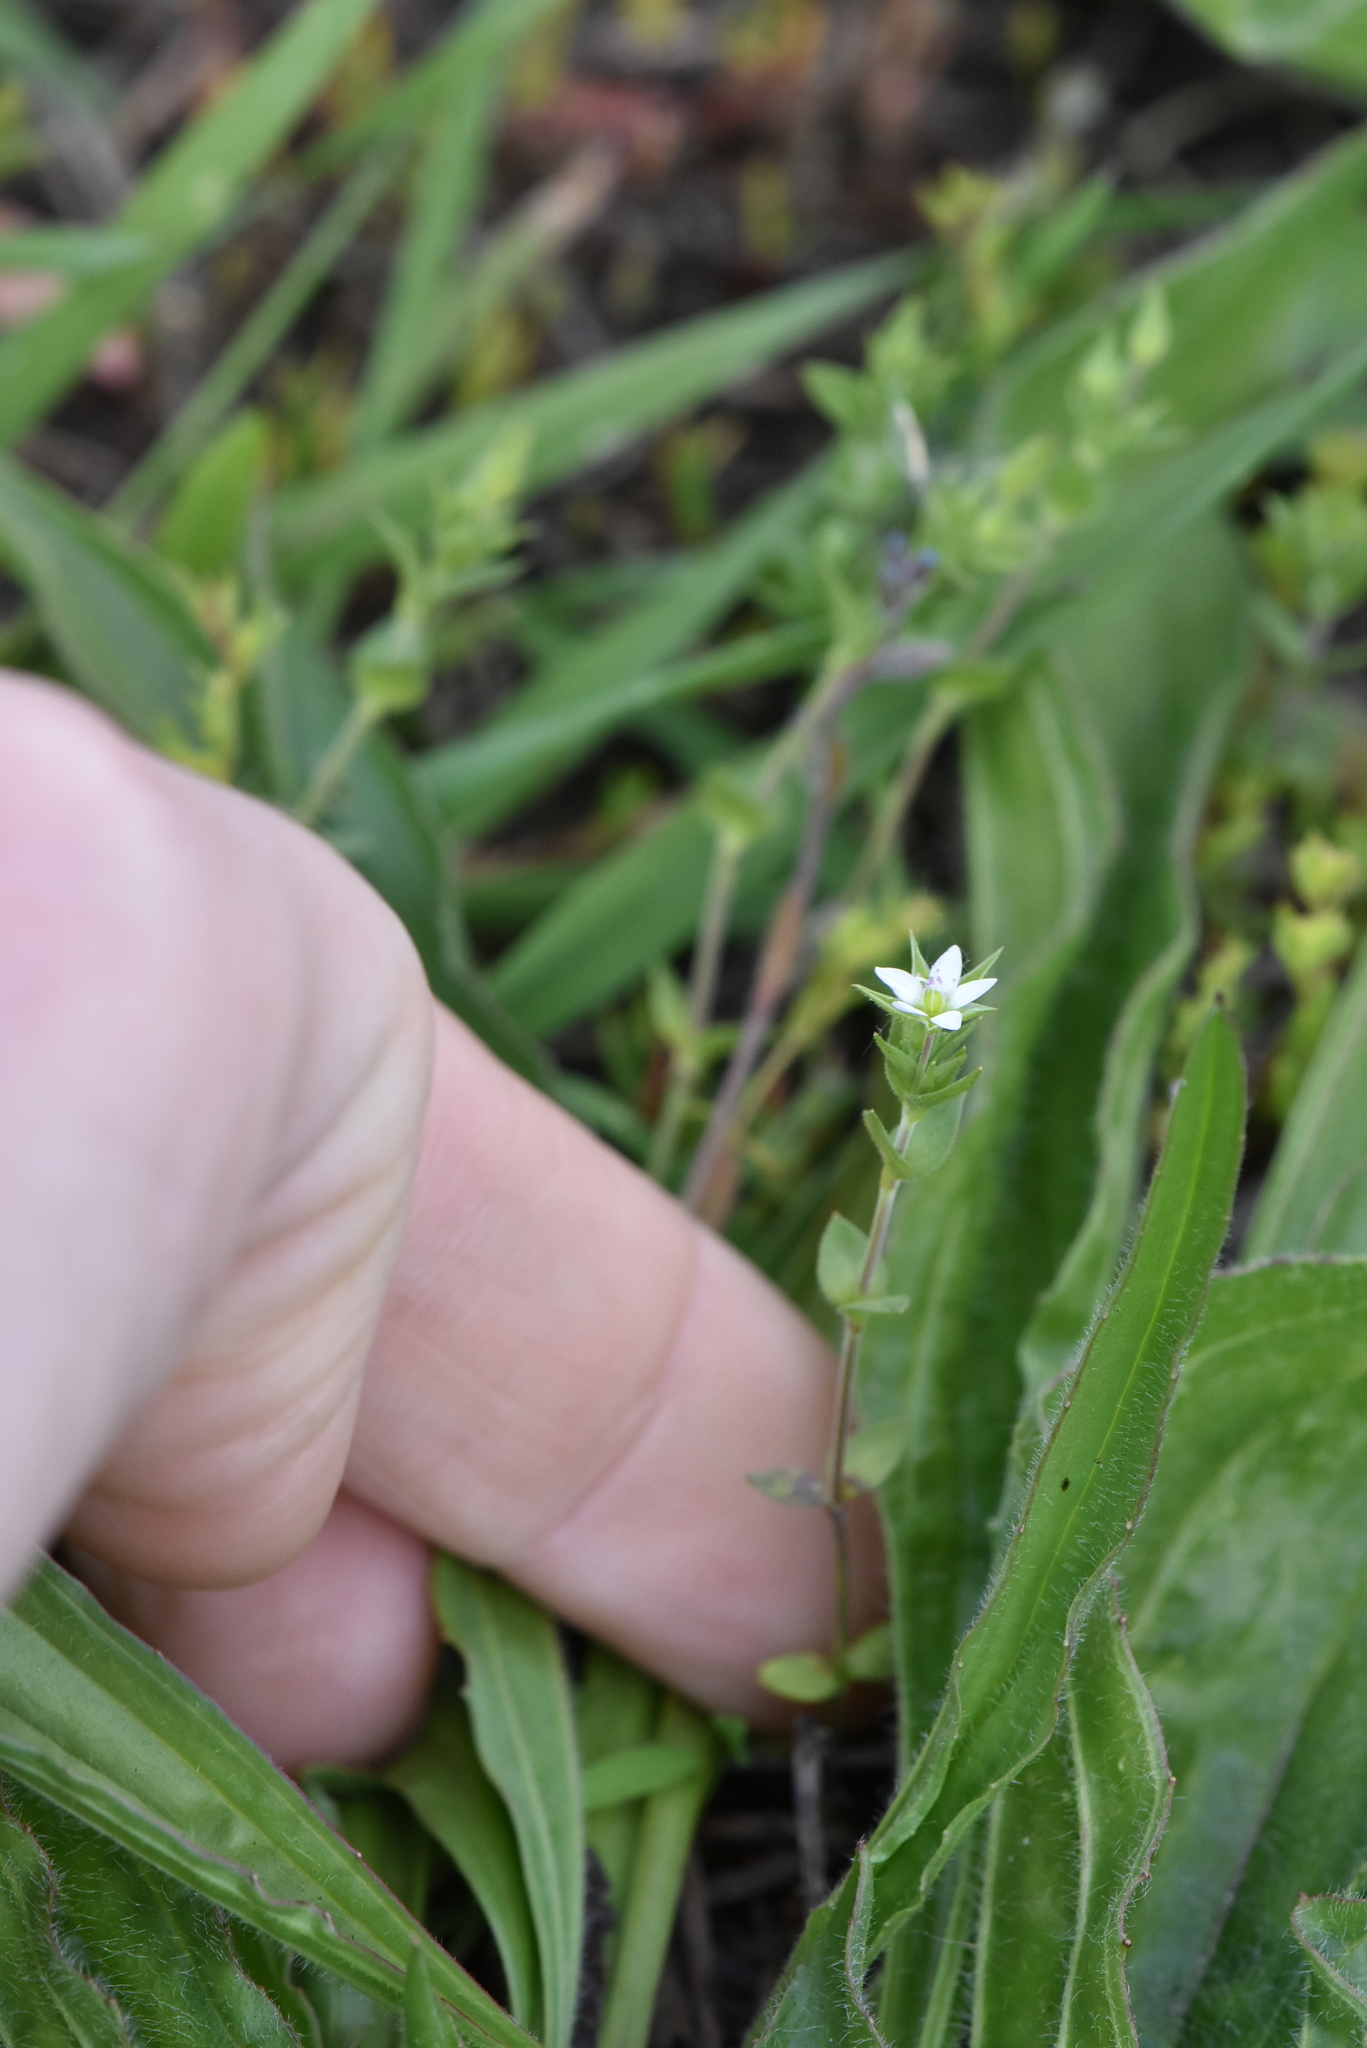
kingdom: Plantae
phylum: Tracheophyta
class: Magnoliopsida
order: Caryophyllales
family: Caryophyllaceae
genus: Arenaria
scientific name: Arenaria serpyllifolia
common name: Thyme-leaved sandwort
